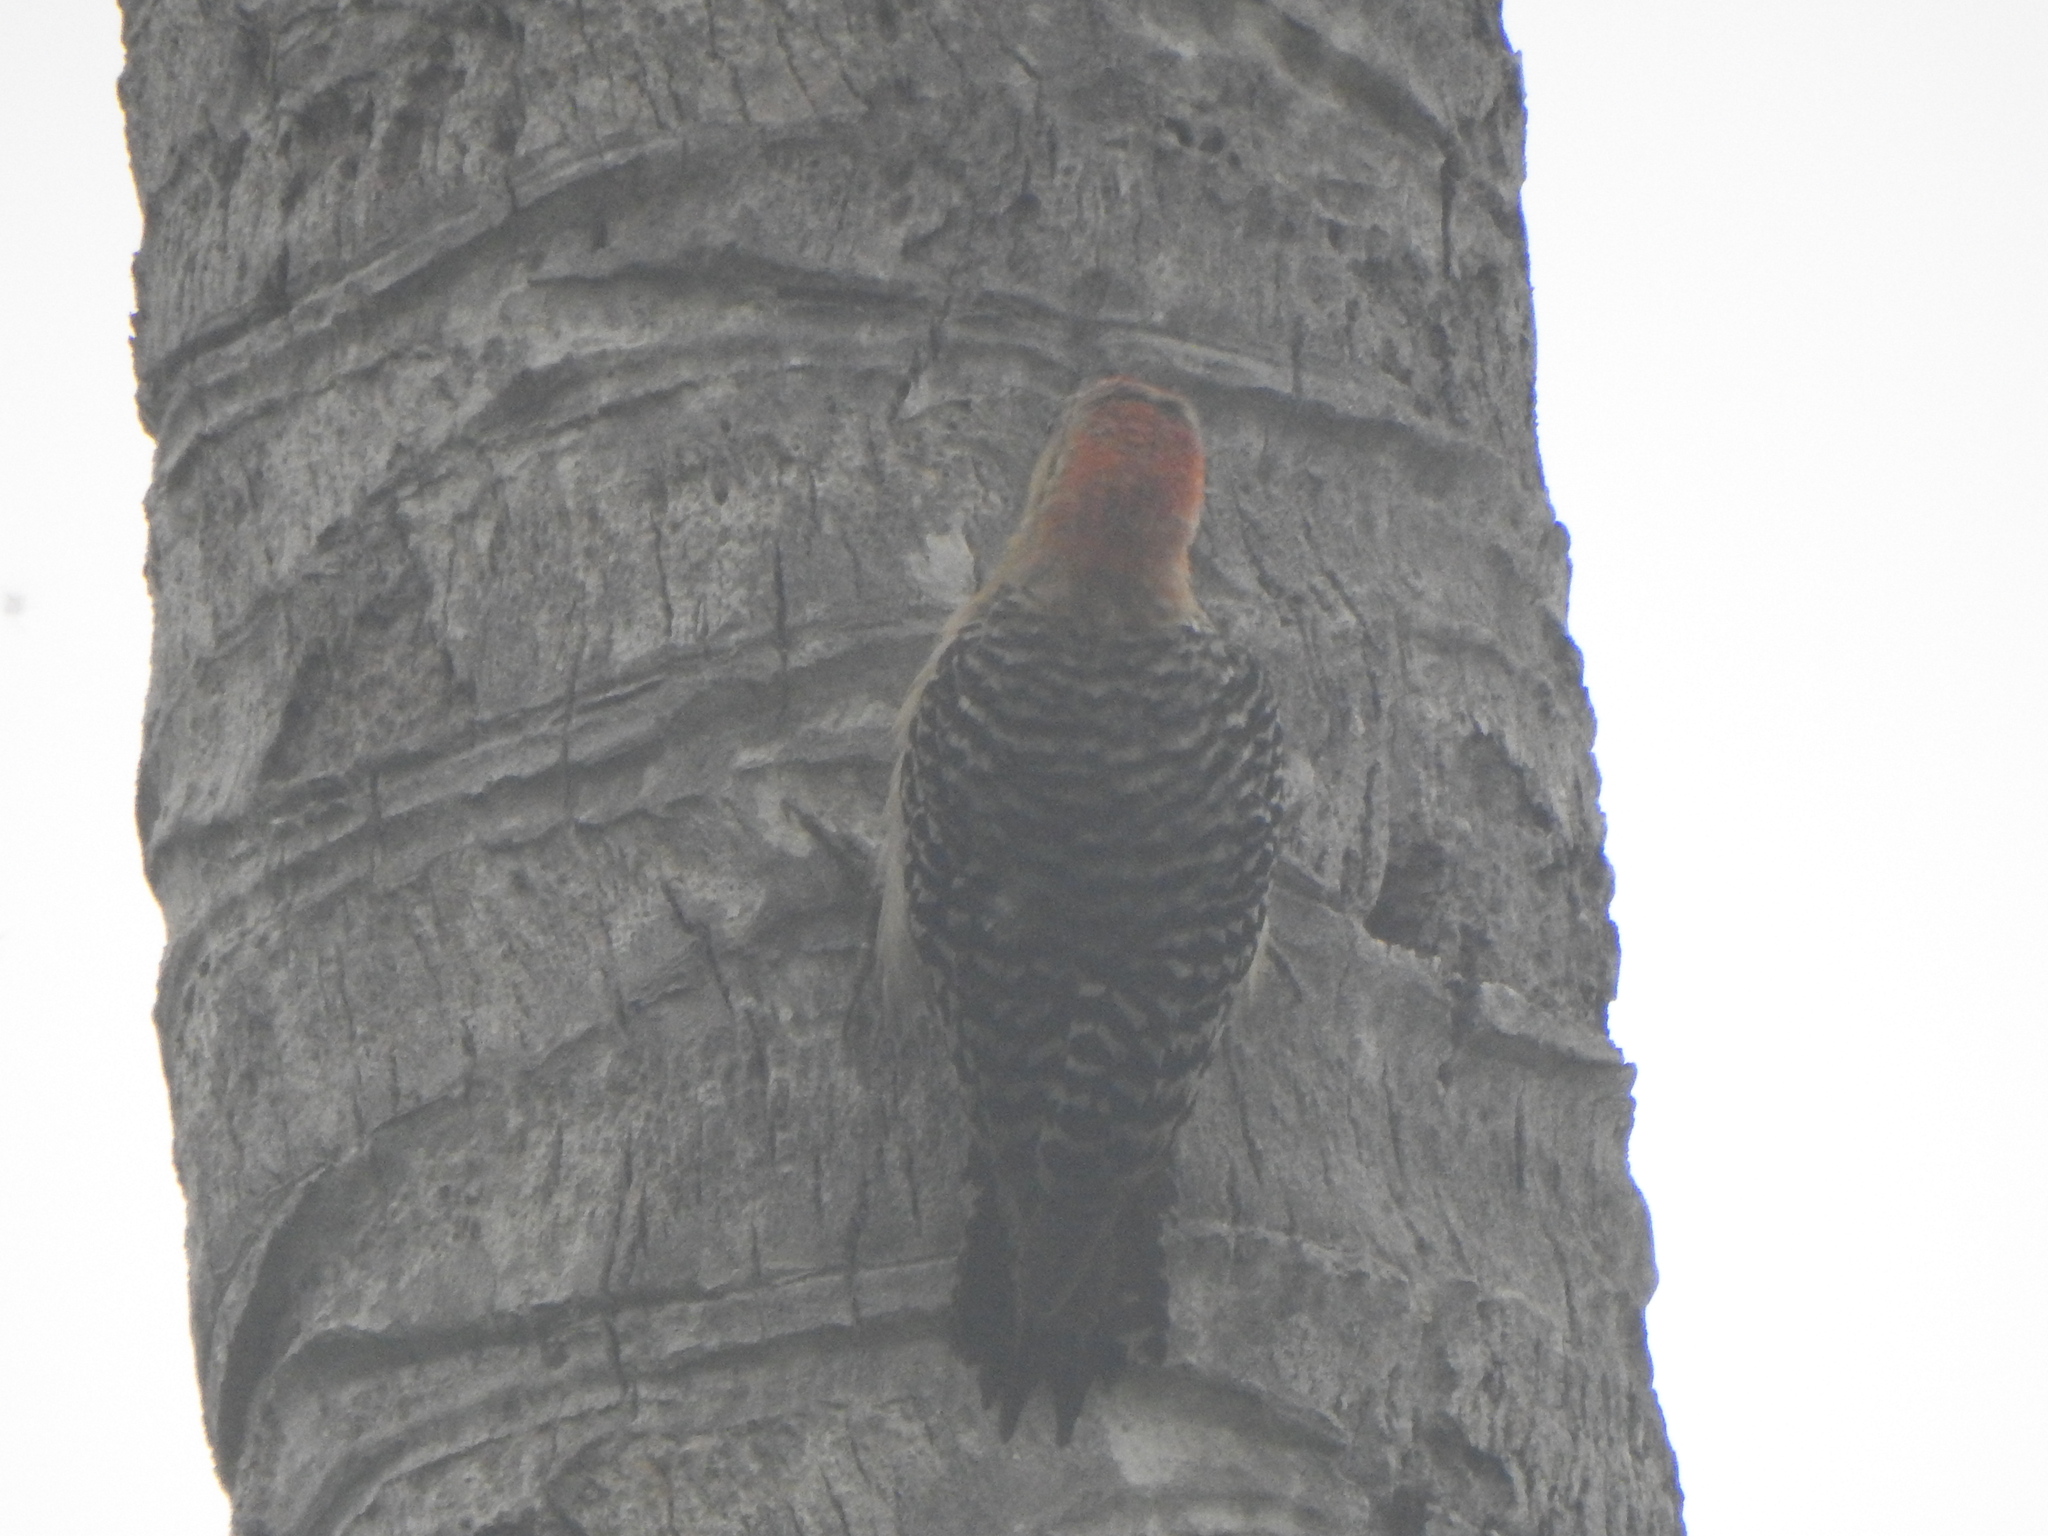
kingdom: Animalia
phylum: Chordata
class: Aves
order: Piciformes
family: Picidae
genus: Melanerpes
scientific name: Melanerpes rubricapillus
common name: Red-crowned woodpecker
